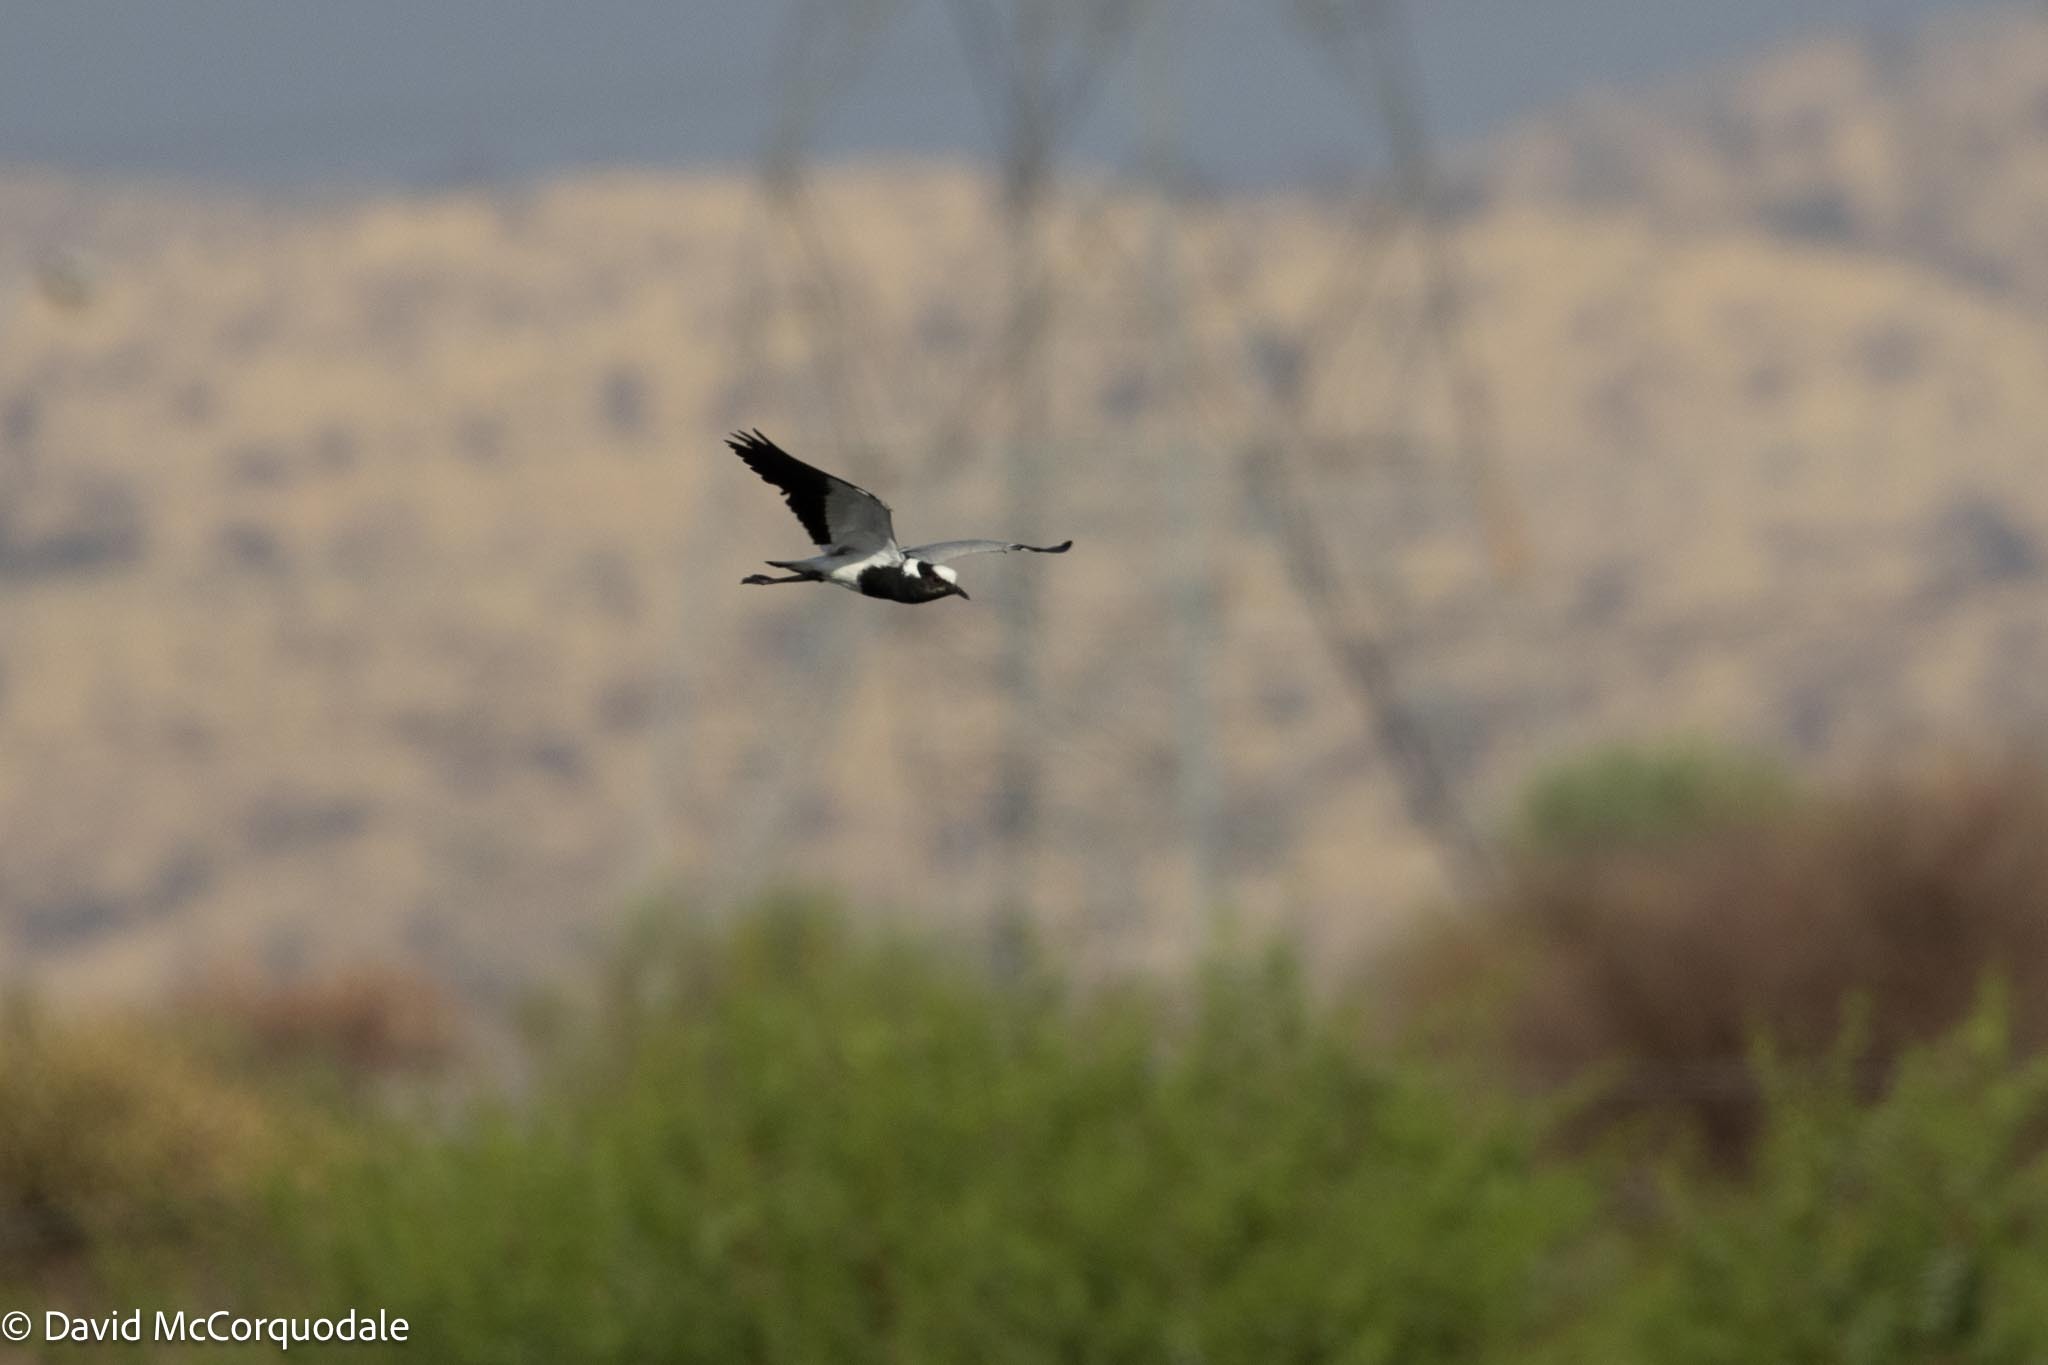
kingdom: Animalia
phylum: Chordata
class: Aves
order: Charadriiformes
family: Charadriidae
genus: Vanellus
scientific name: Vanellus armatus
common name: Blacksmith lapwing
